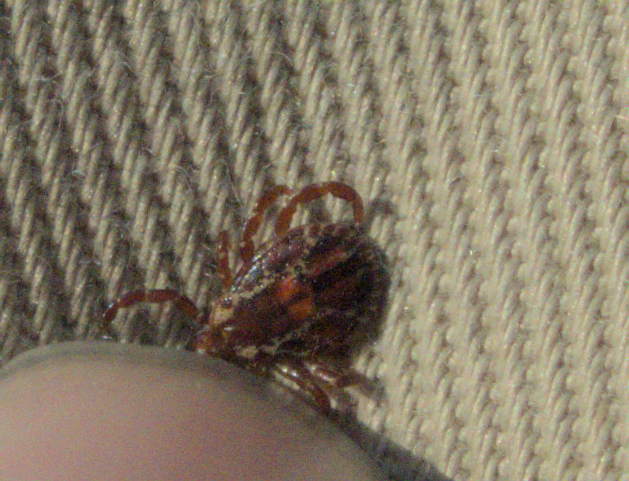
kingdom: Animalia
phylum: Arthropoda
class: Arachnida
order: Ixodida
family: Ixodidae
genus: Dermacentor
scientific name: Dermacentor variabilis
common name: American dog tick
